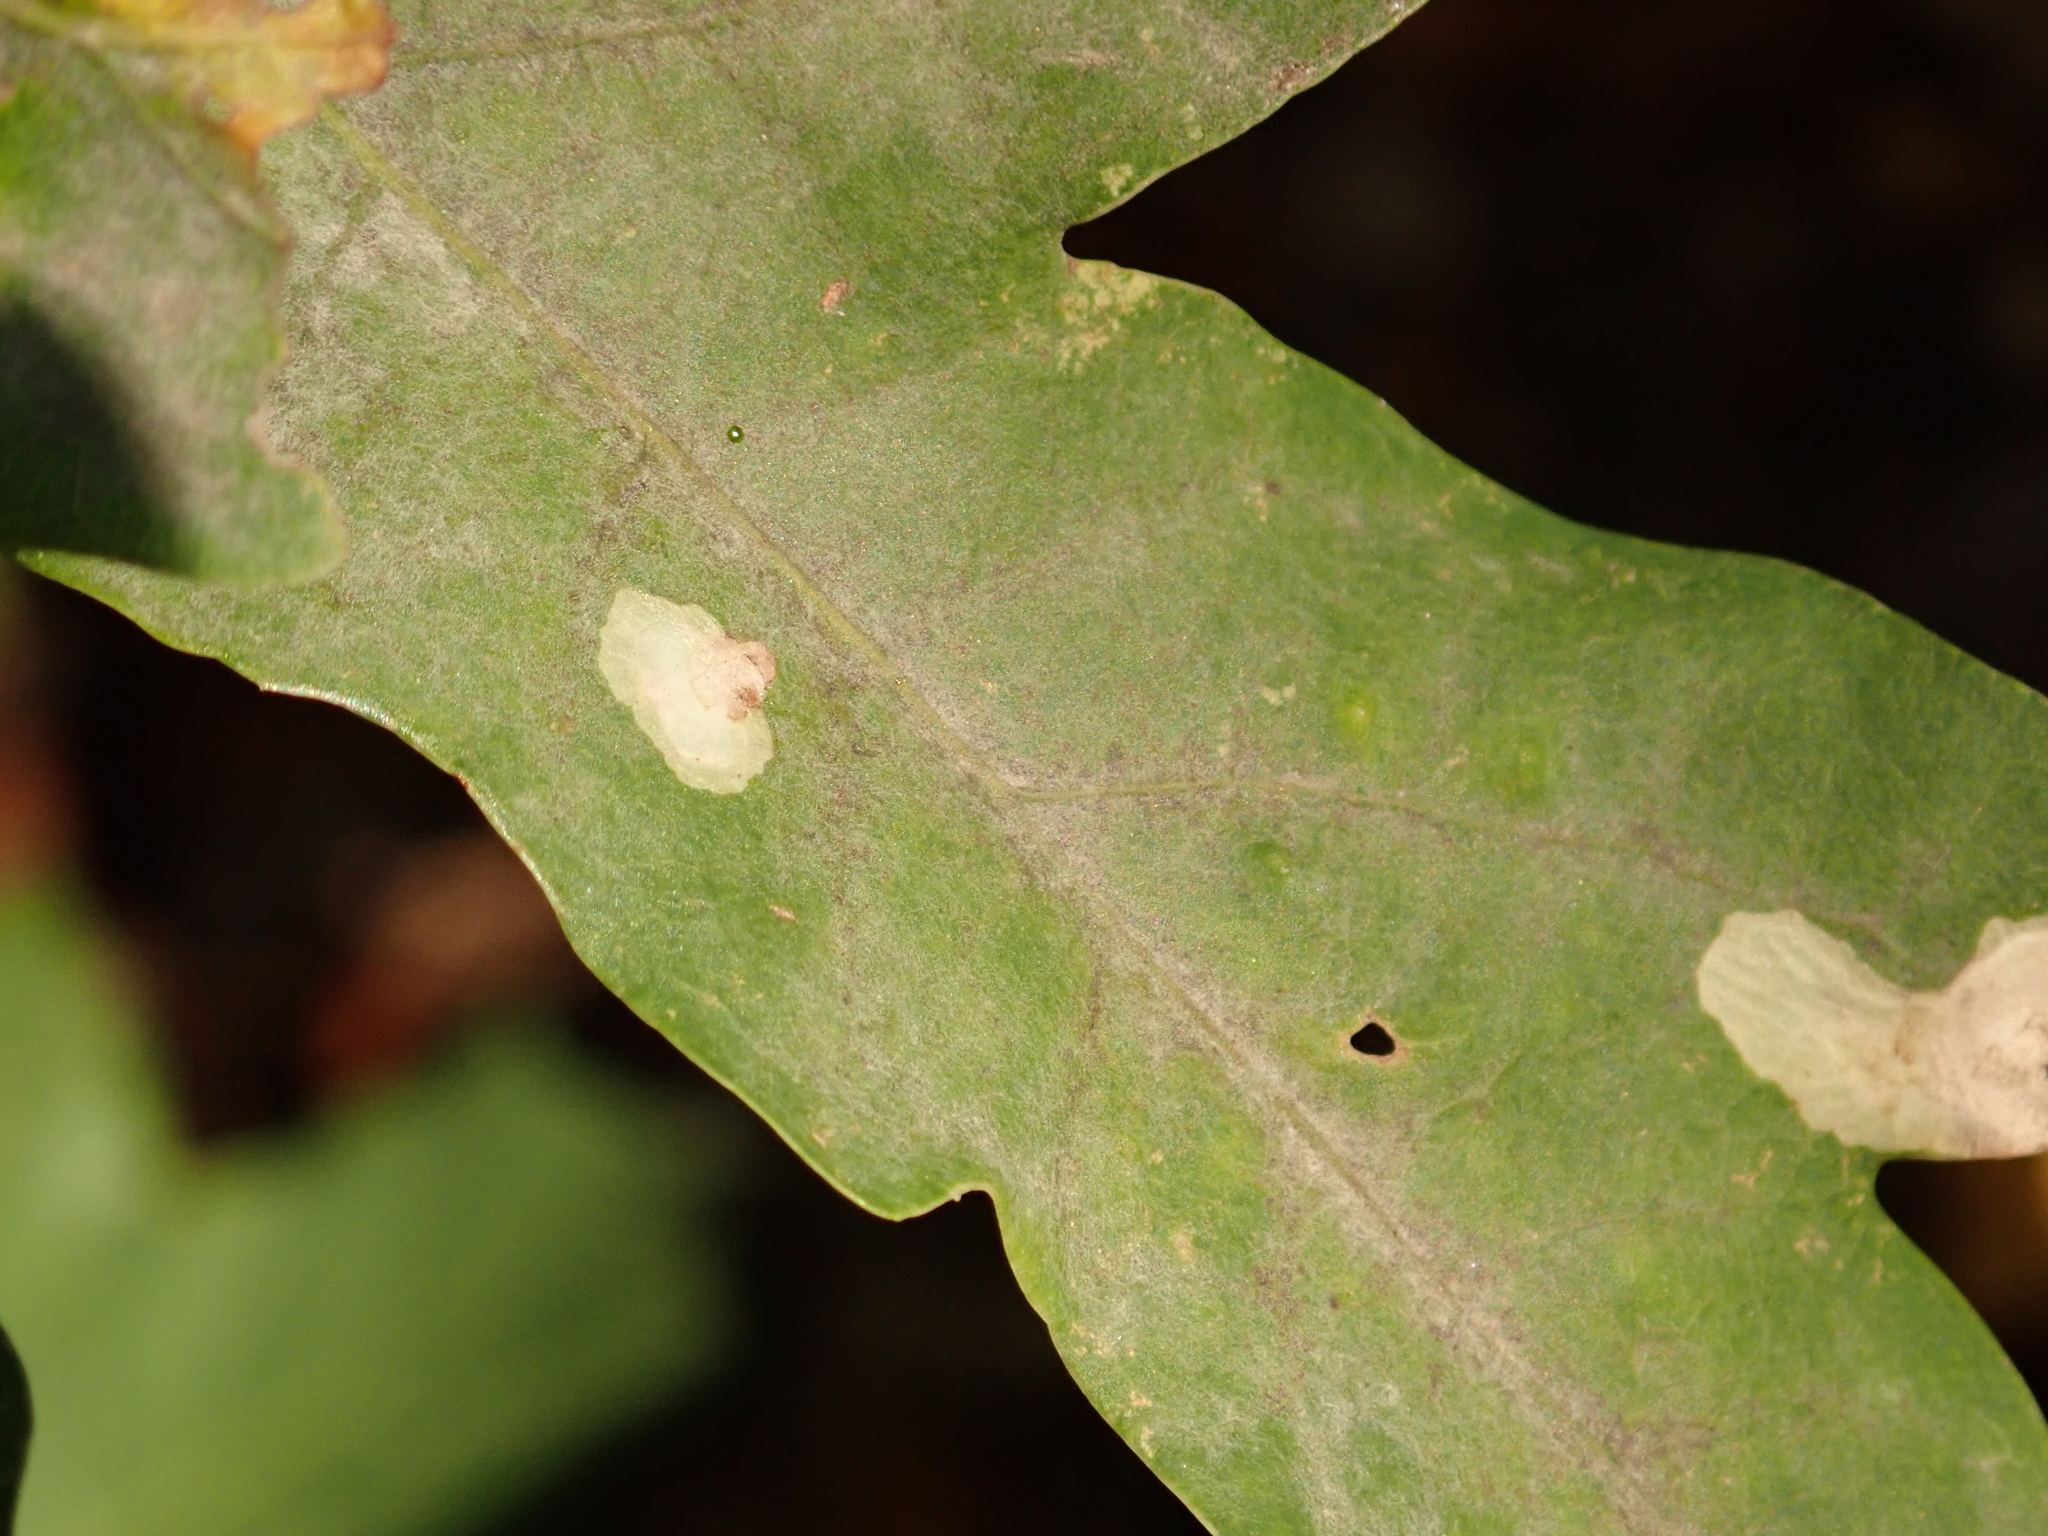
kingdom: Fungi
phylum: Ascomycota
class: Leotiomycetes
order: Helotiales
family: Erysiphaceae
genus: Erysiphe
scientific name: Erysiphe
